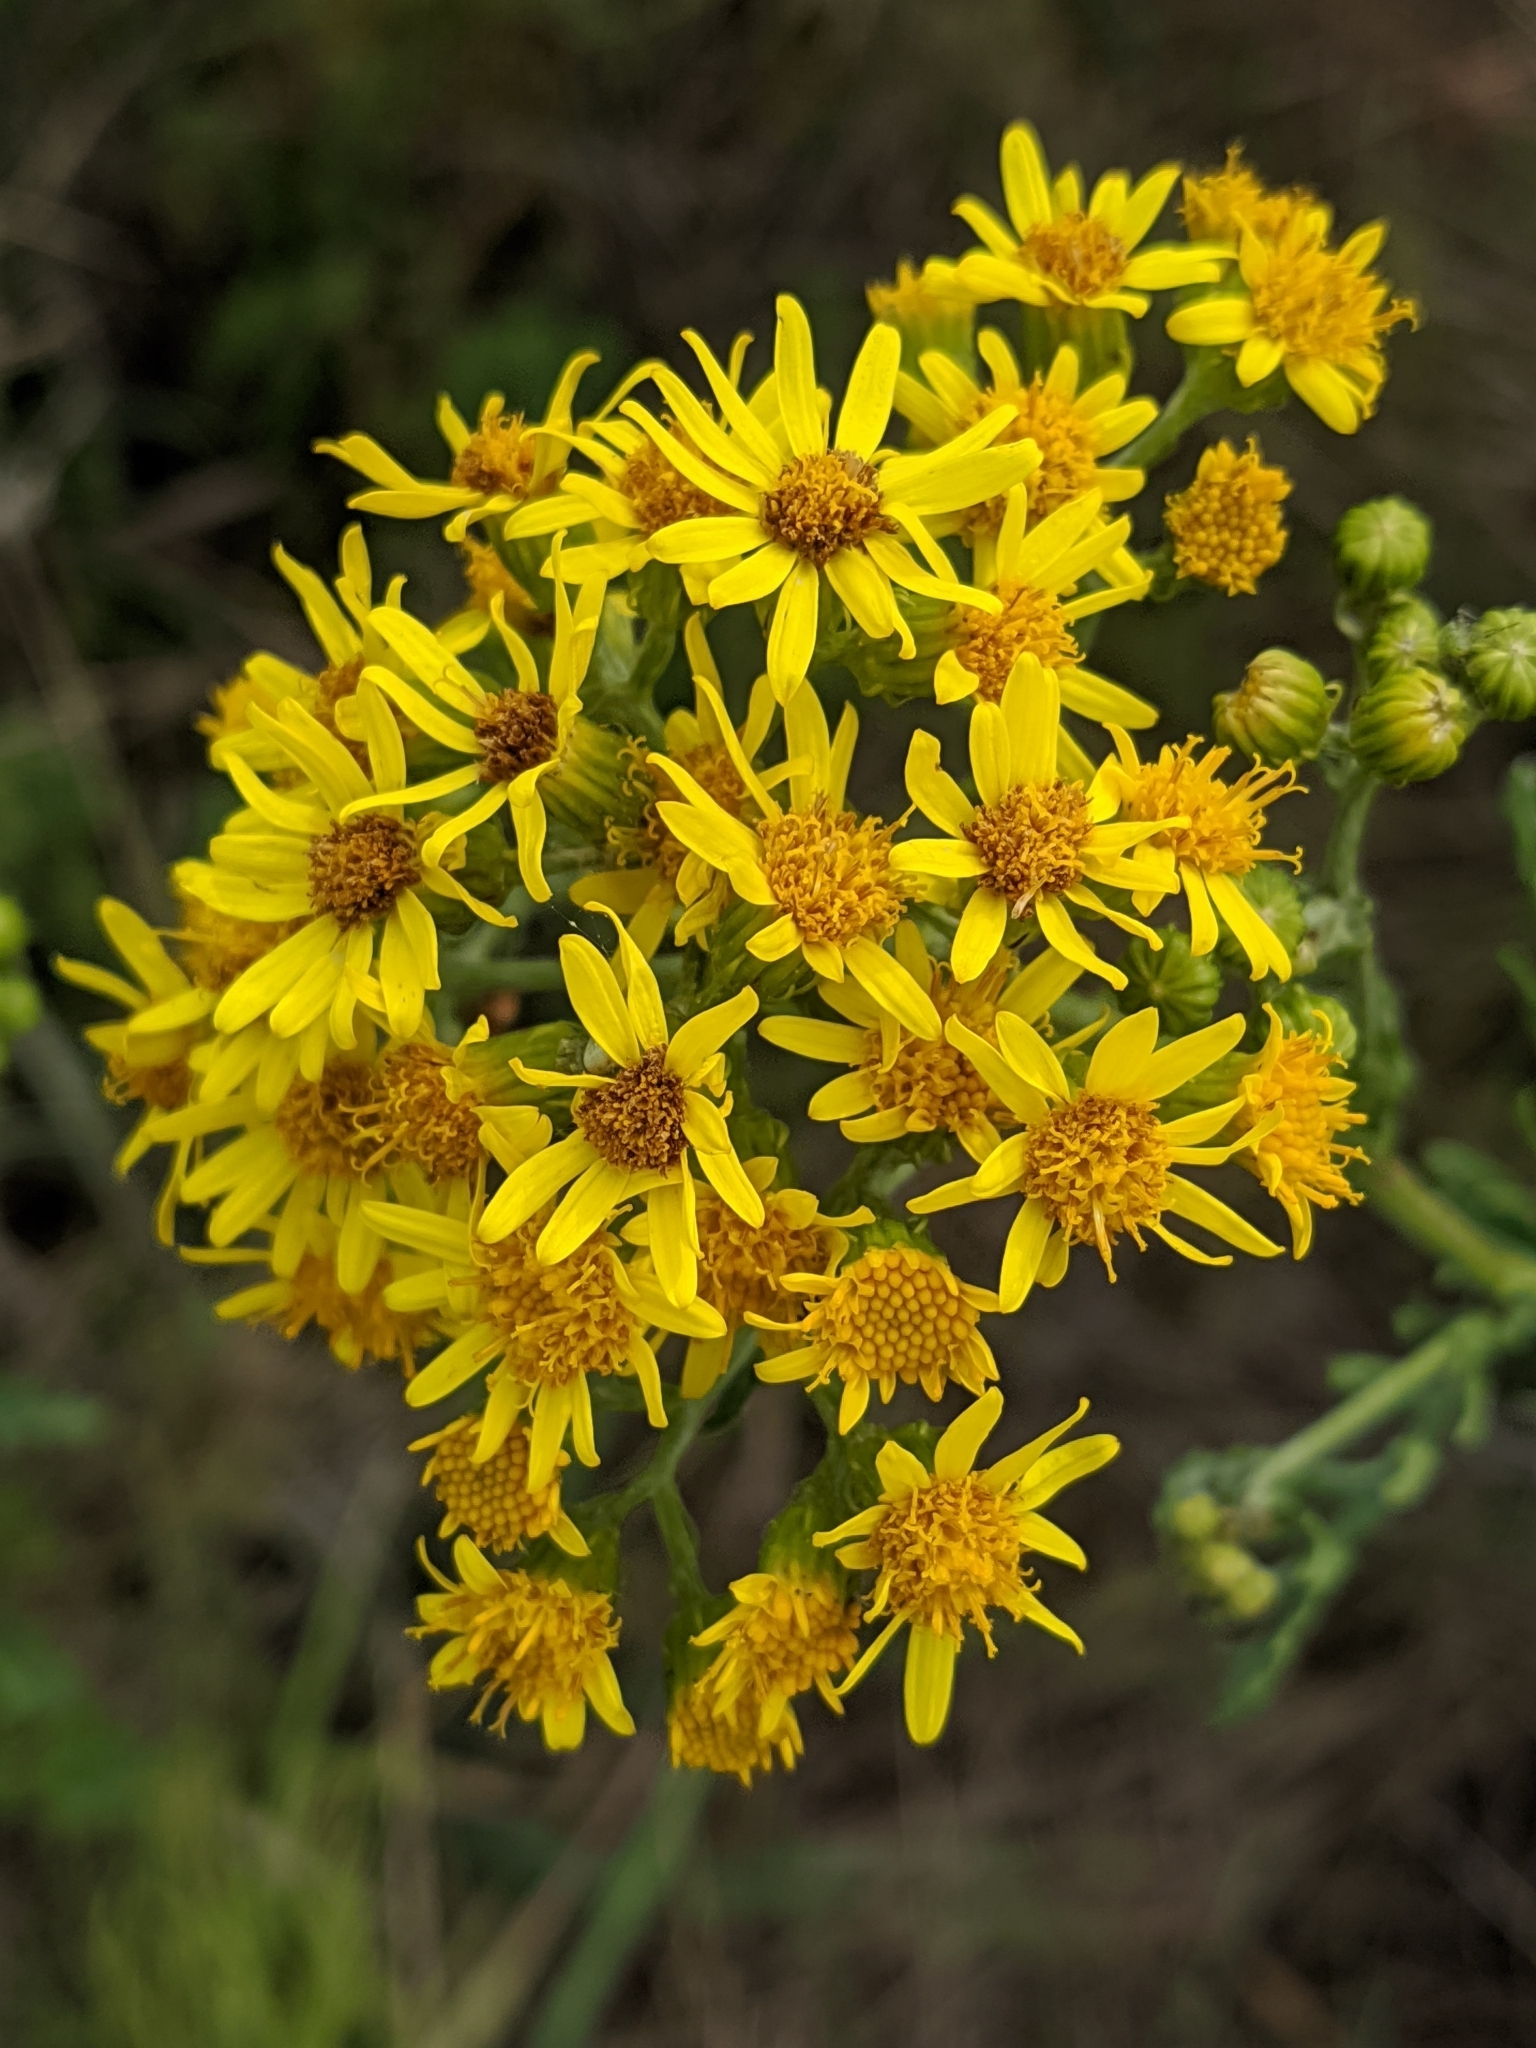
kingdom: Plantae
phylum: Tracheophyta
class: Magnoliopsida
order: Asterales
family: Asteraceae
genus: Jacobaea
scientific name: Jacobaea vulgaris
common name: Stinking willie
